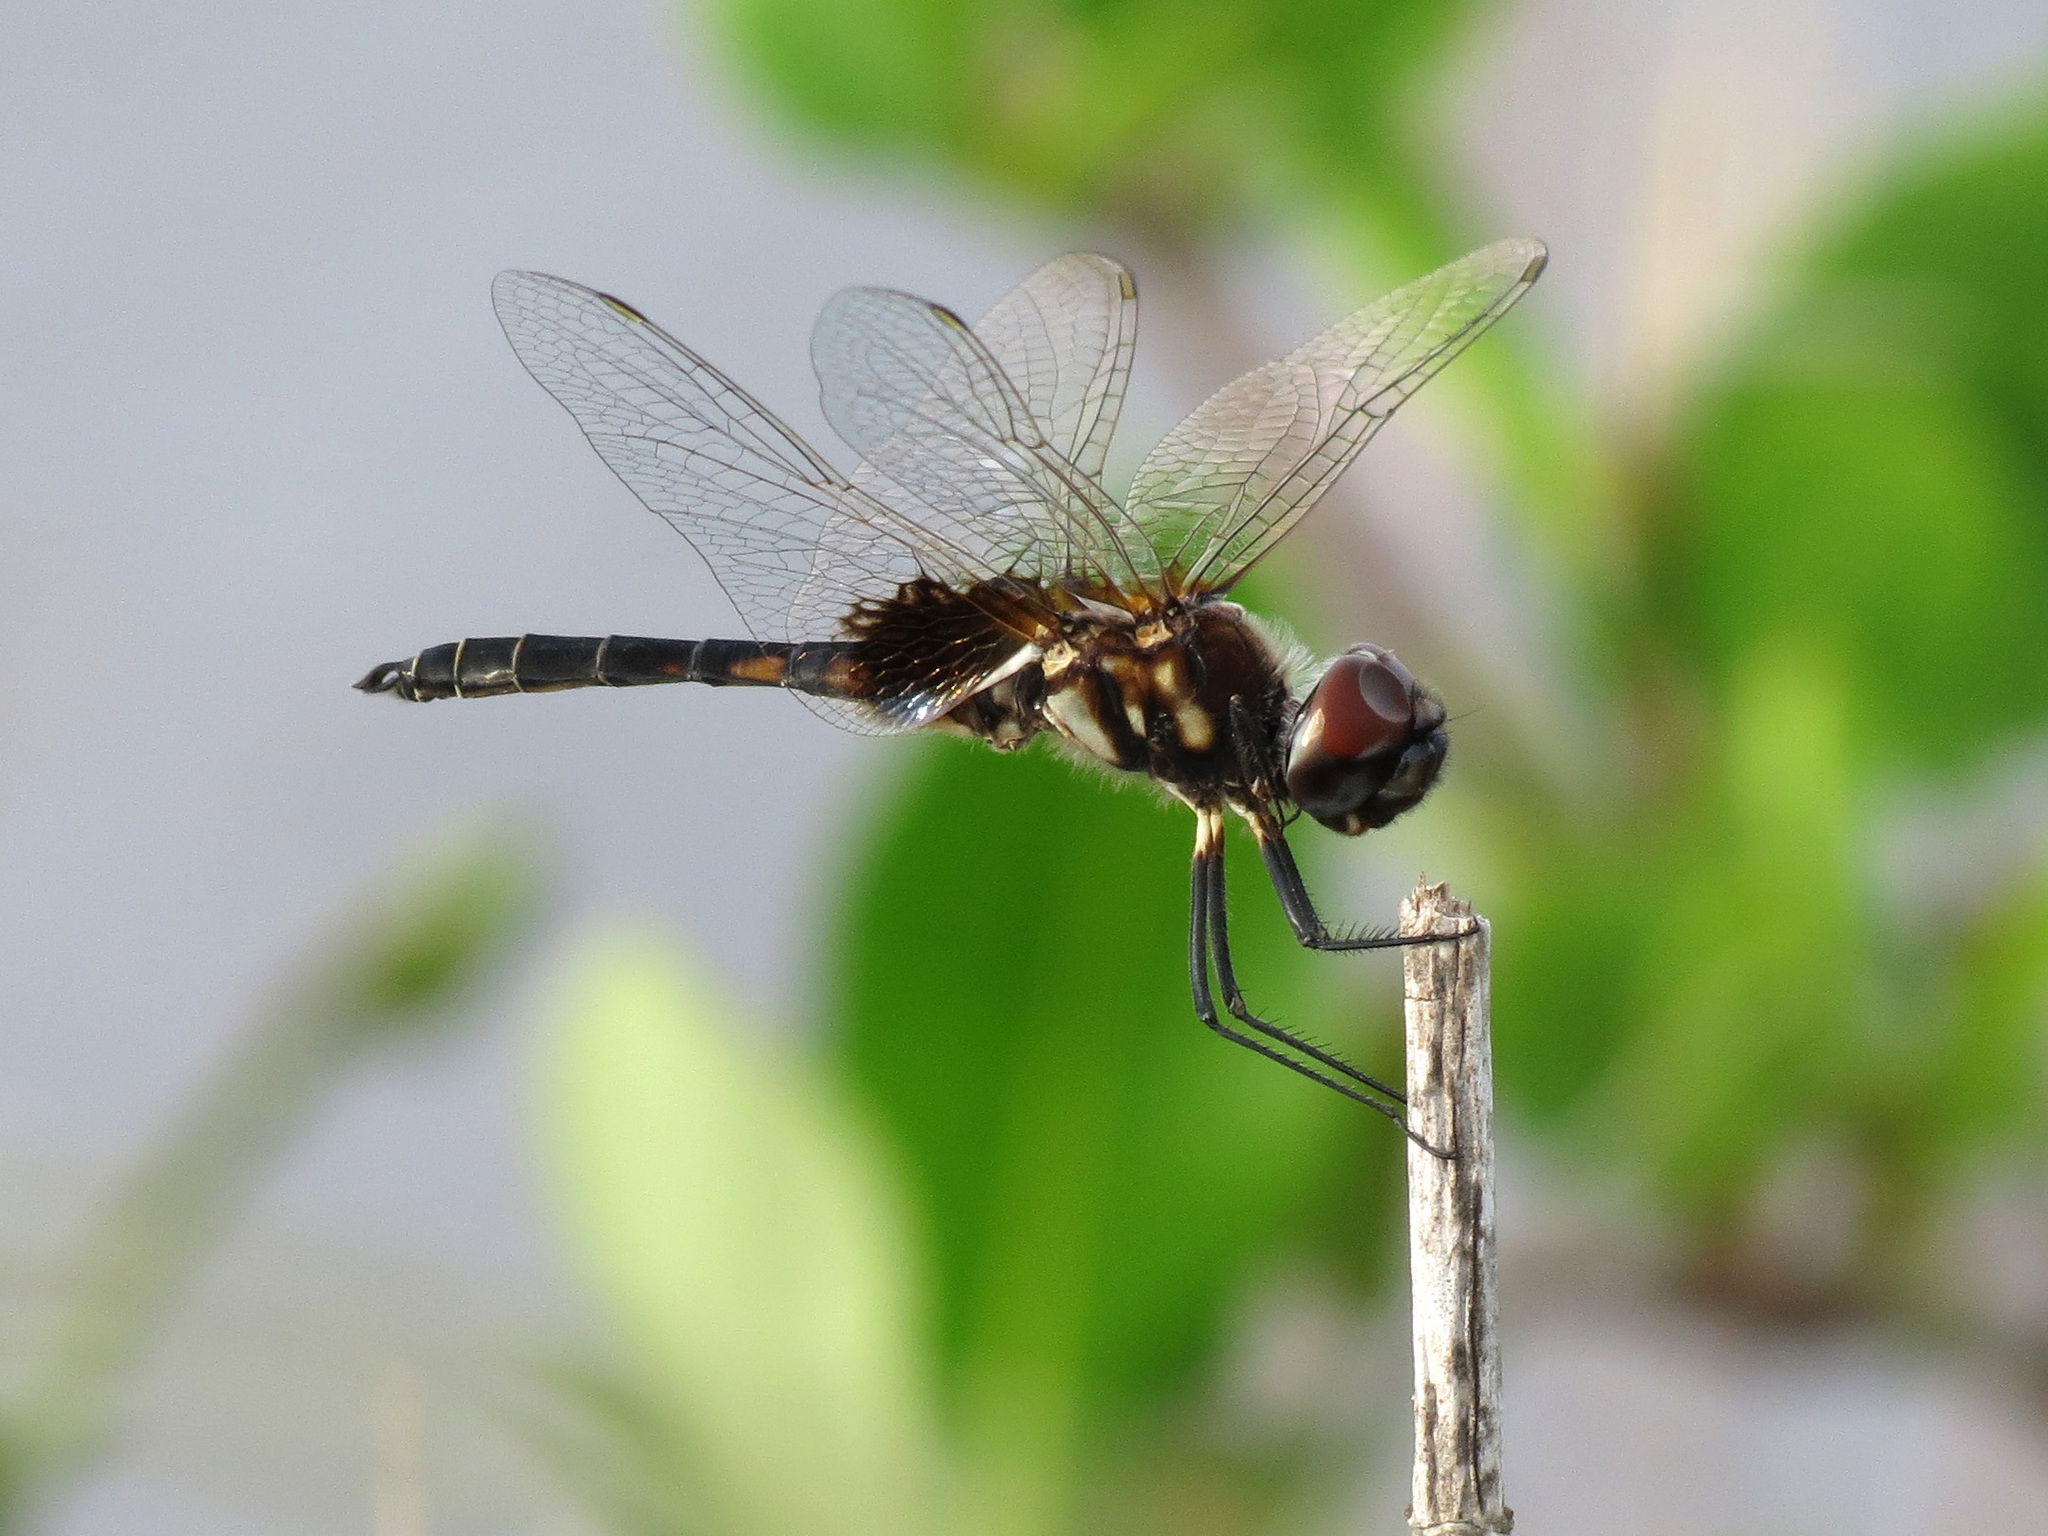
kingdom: Animalia
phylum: Arthropoda
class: Insecta
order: Odonata
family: Libellulidae
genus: Macrodiplax
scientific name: Macrodiplax balteata
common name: Marl pennant
